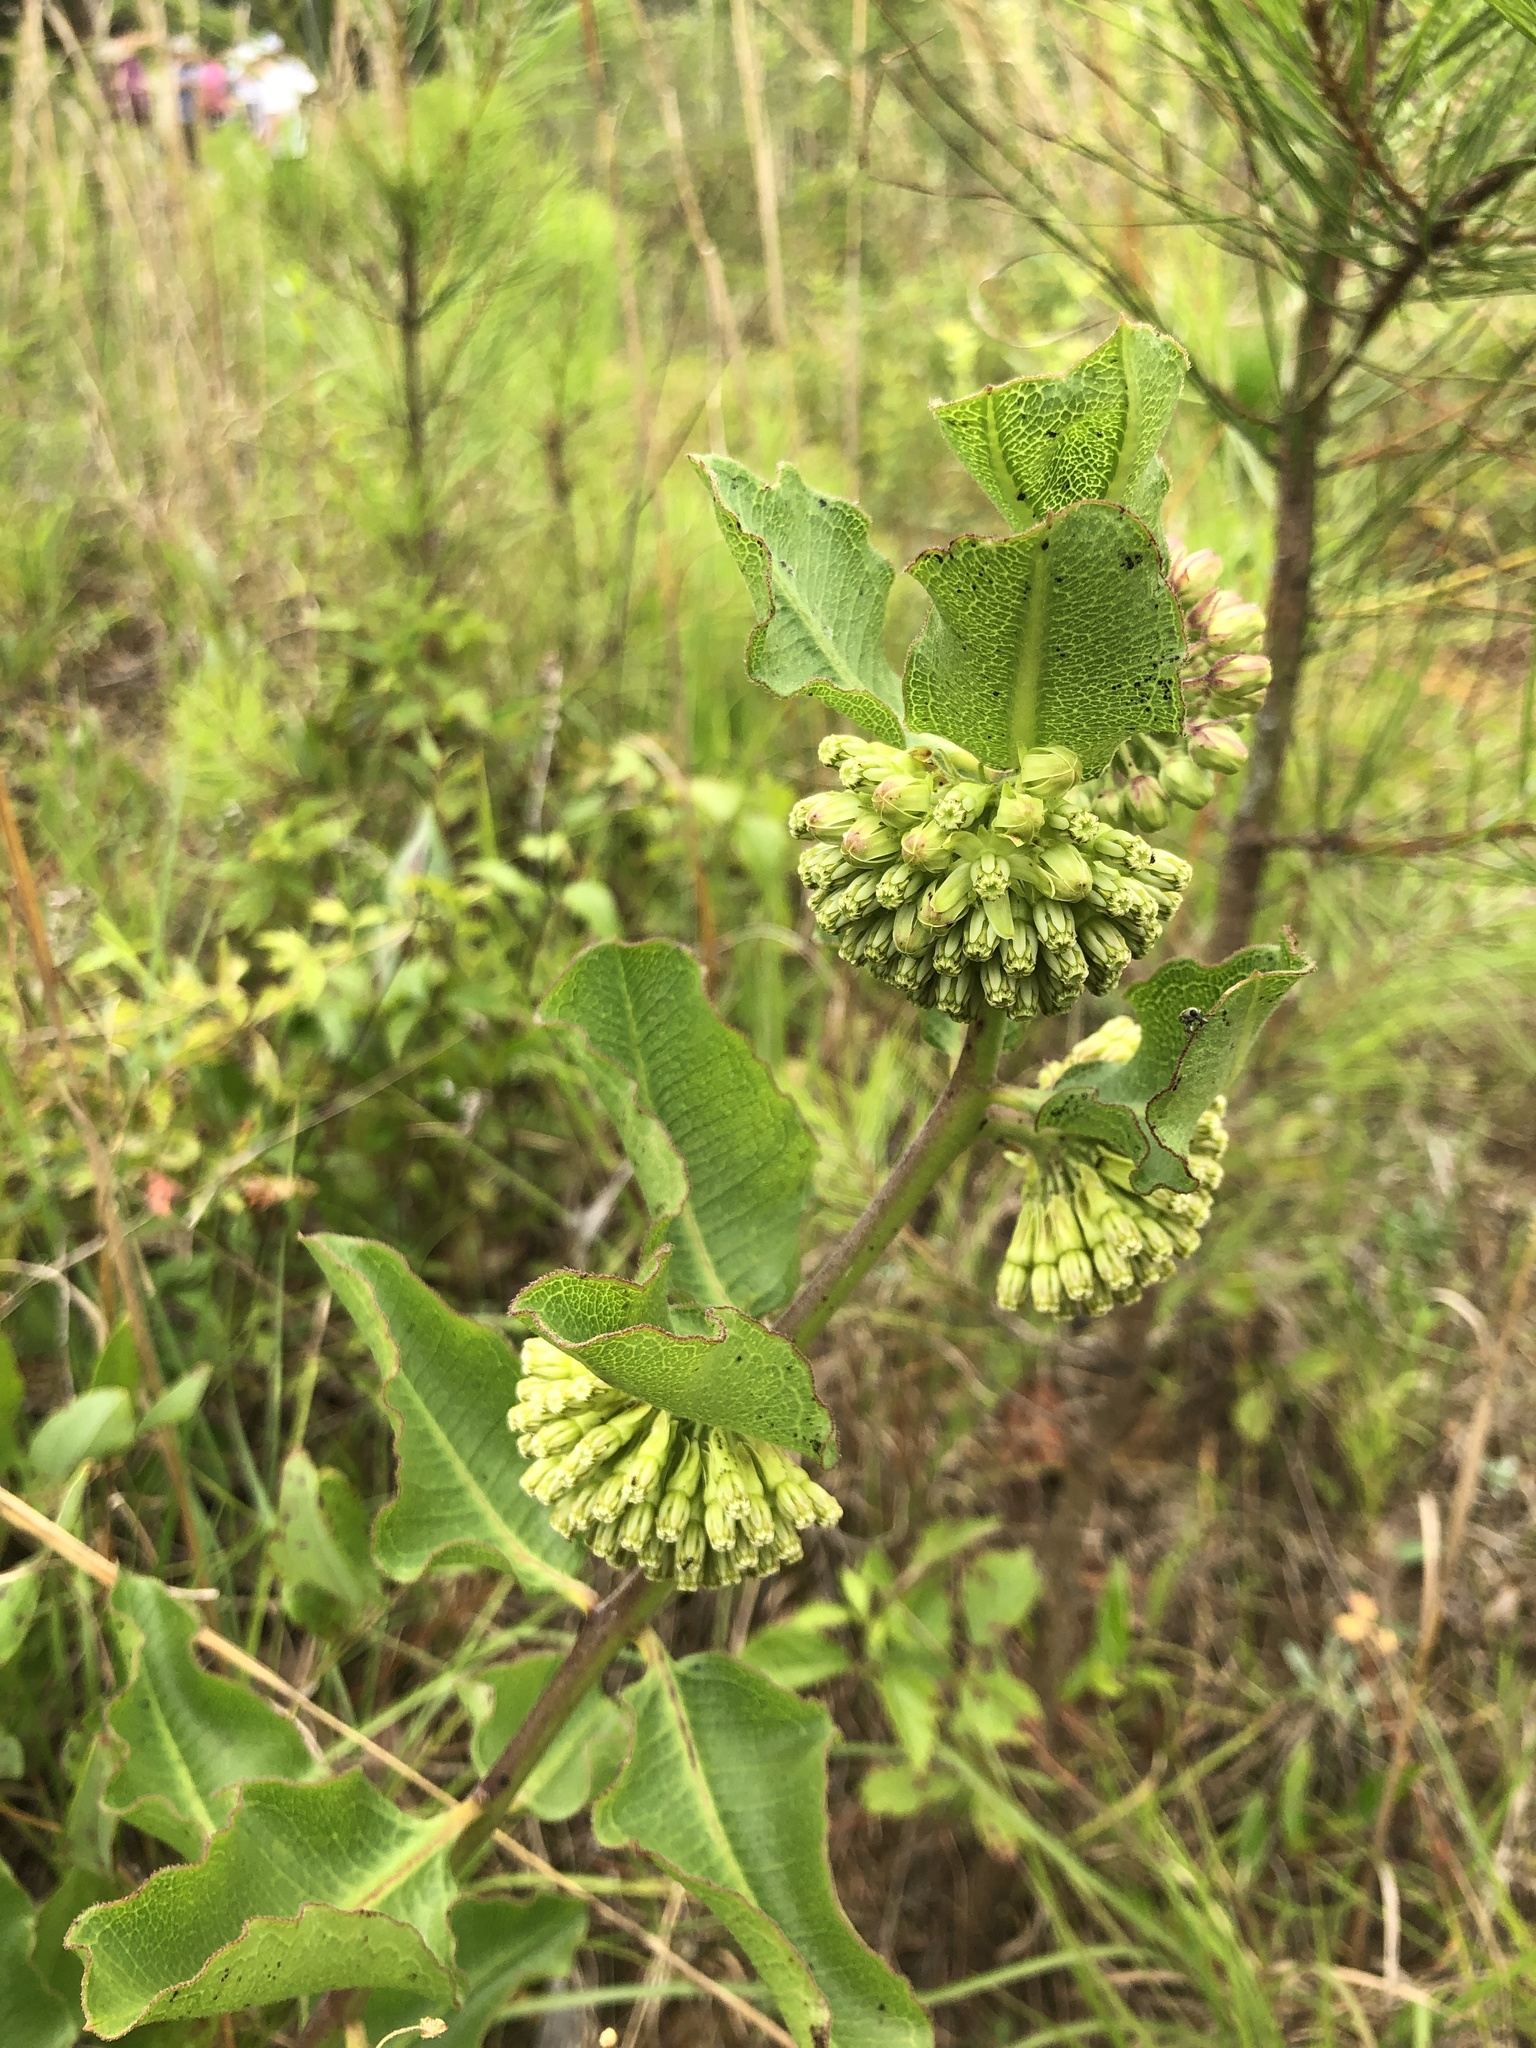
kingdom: Plantae
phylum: Tracheophyta
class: Magnoliopsida
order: Gentianales
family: Apocynaceae
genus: Asclepias
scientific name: Asclepias viridiflora
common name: Green comet milkweed
